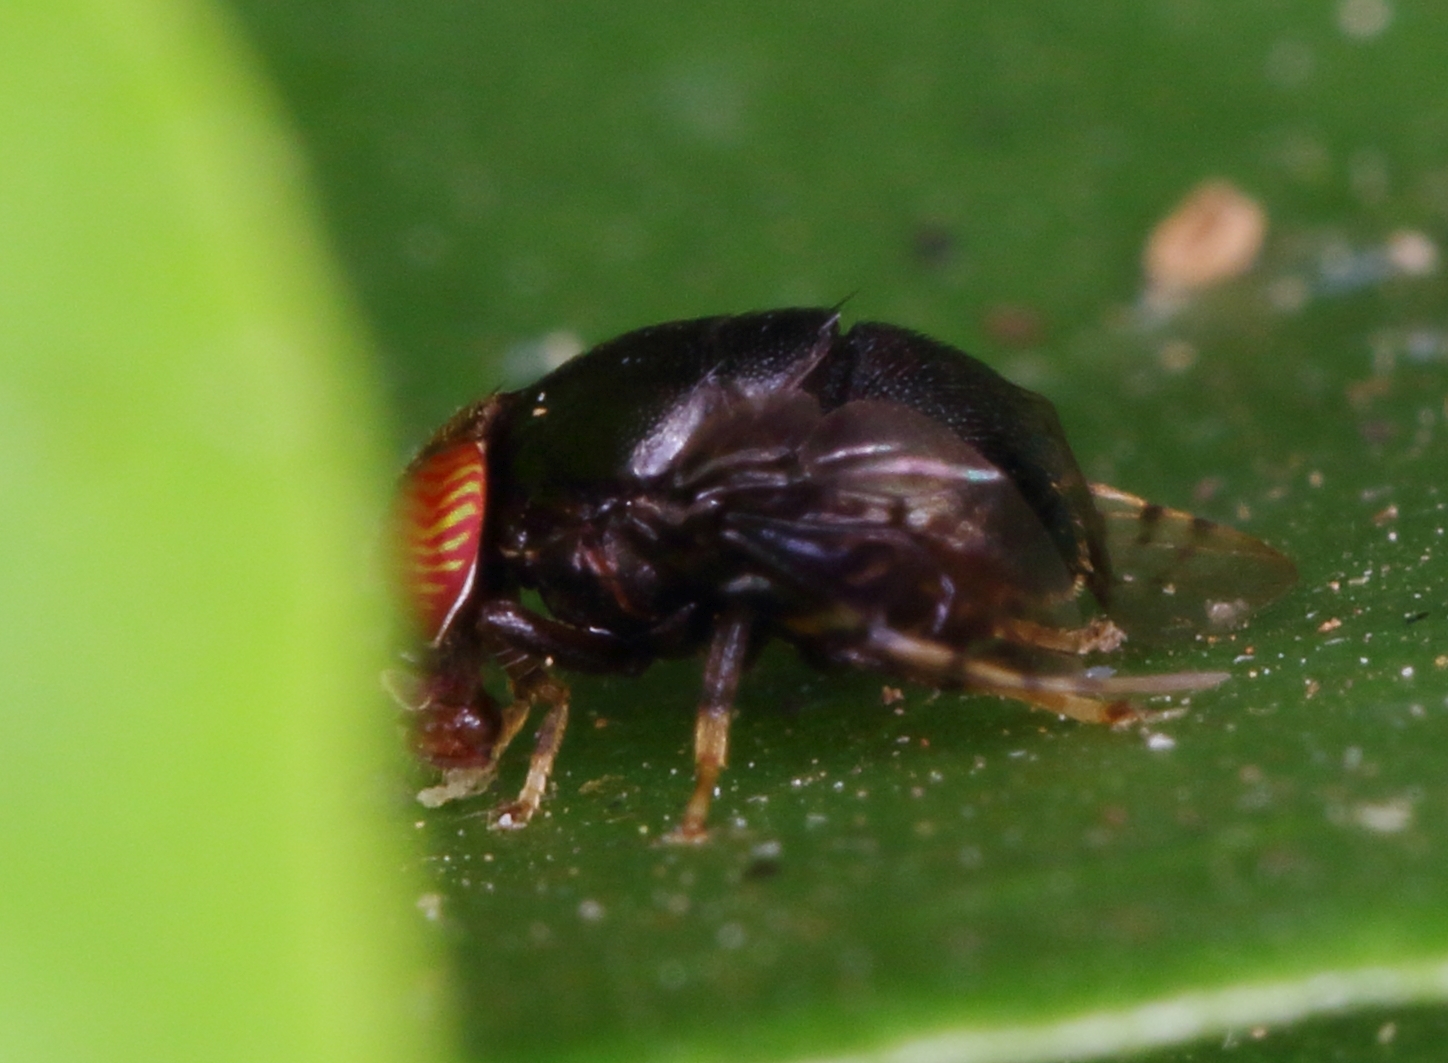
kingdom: Animalia
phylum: Arthropoda
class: Insecta
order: Diptera
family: Platystomatidae
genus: Naupoda
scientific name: Naupoda inscripta
